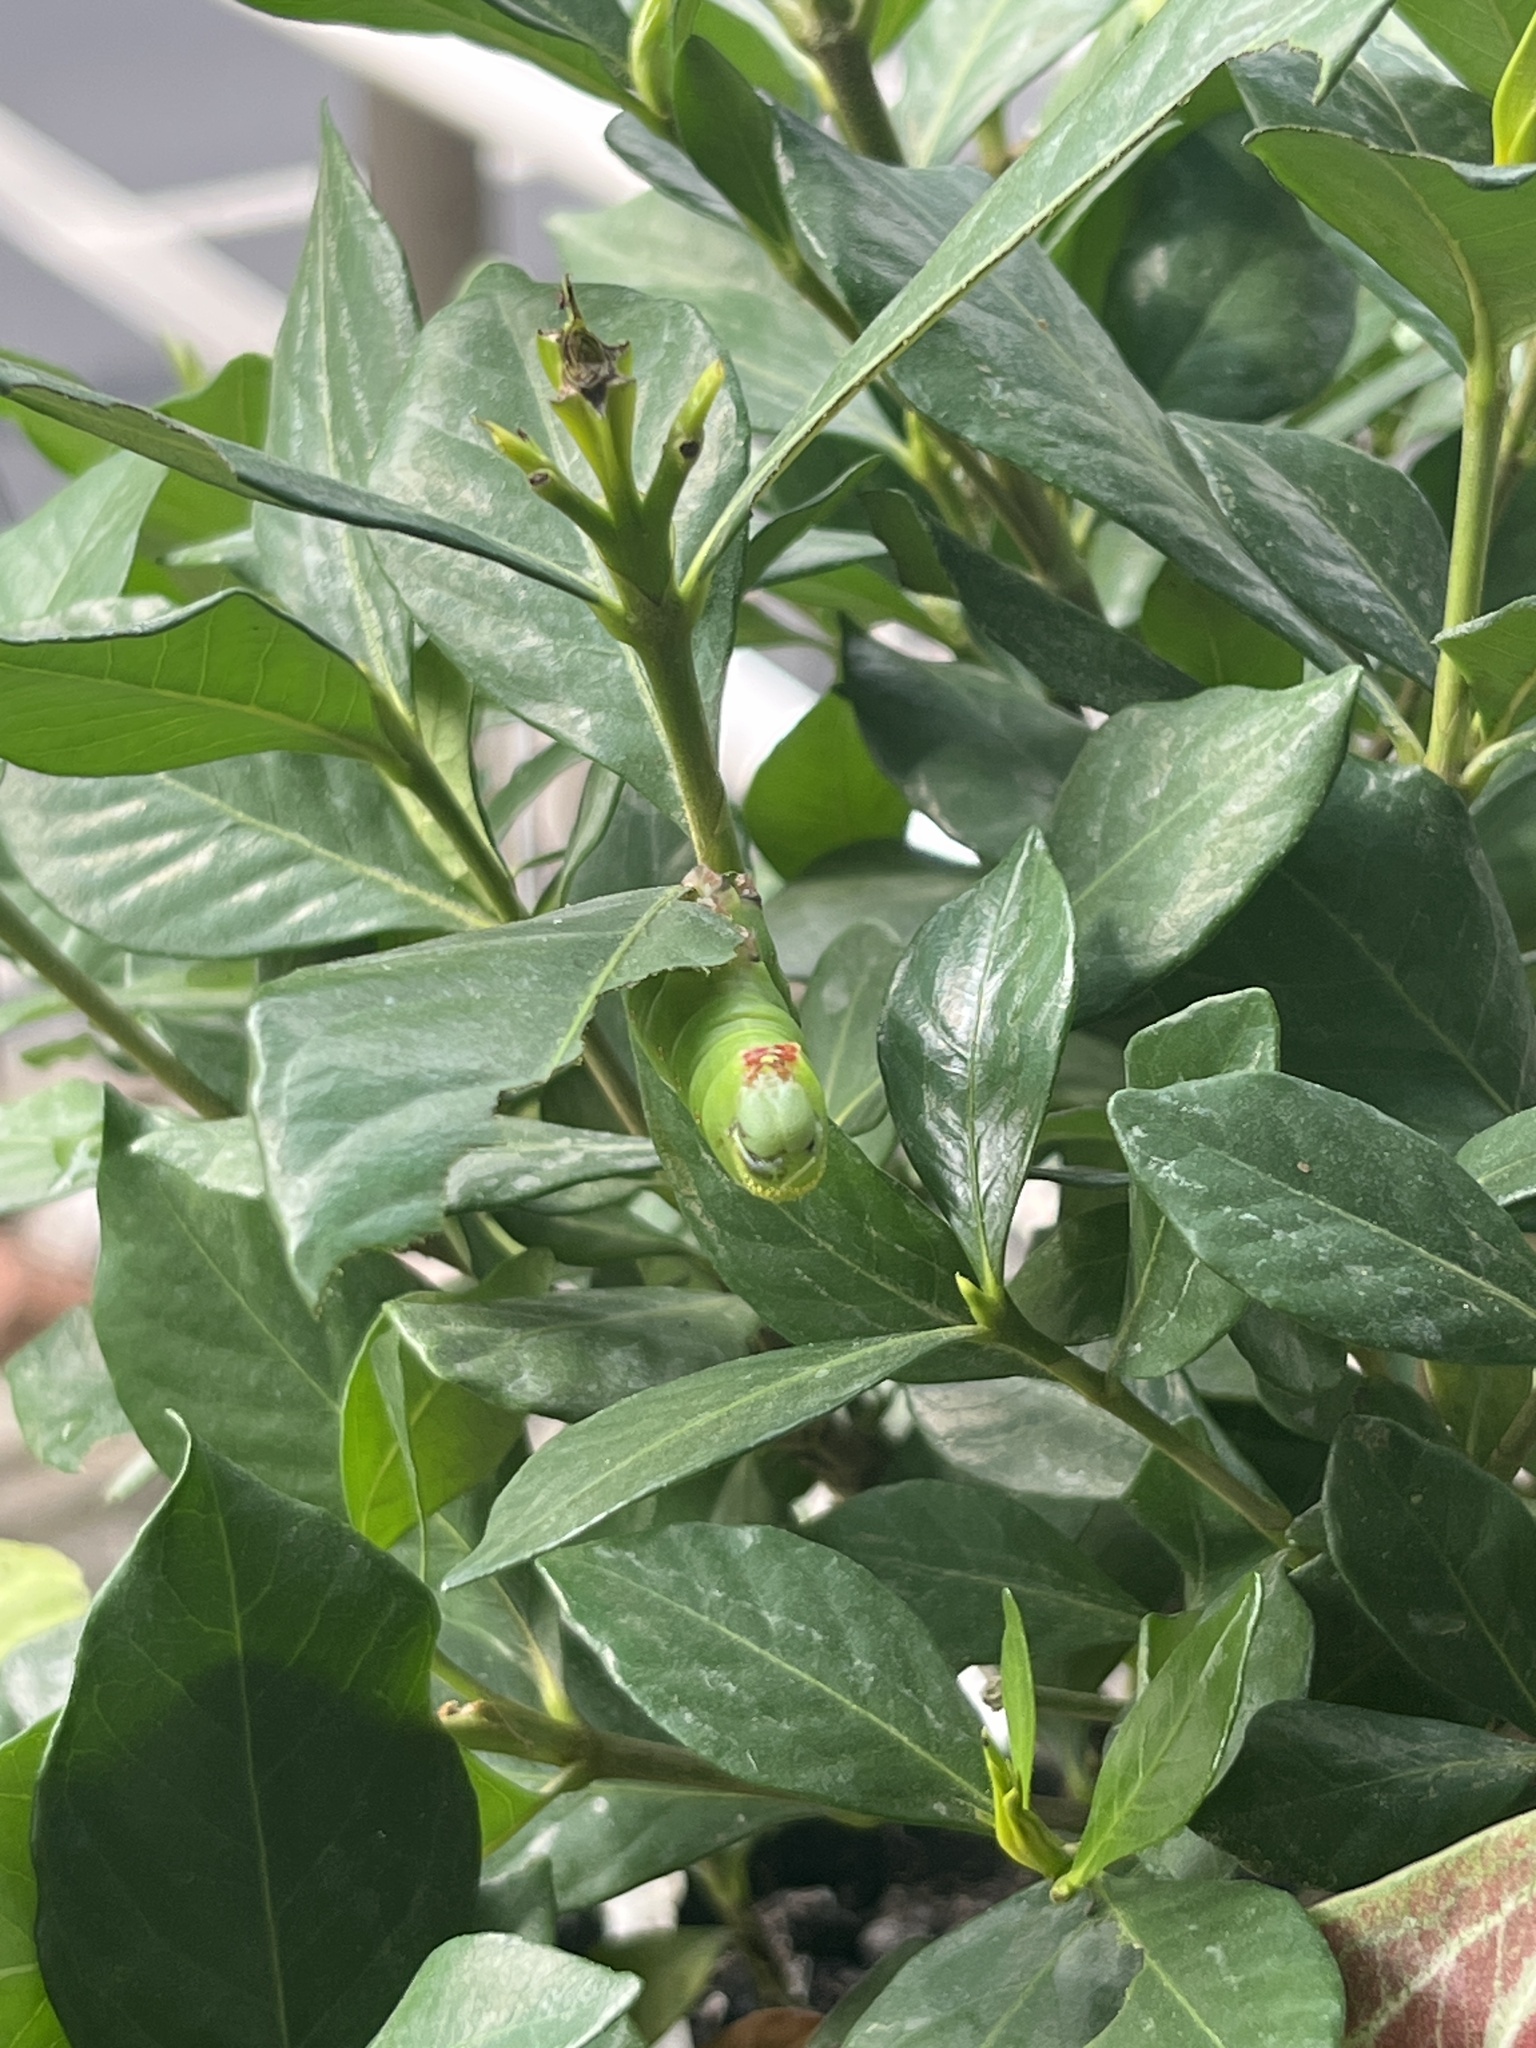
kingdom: Animalia
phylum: Arthropoda
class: Insecta
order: Lepidoptera
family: Sphingidae
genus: Cephonodes
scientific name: Cephonodes hylas
